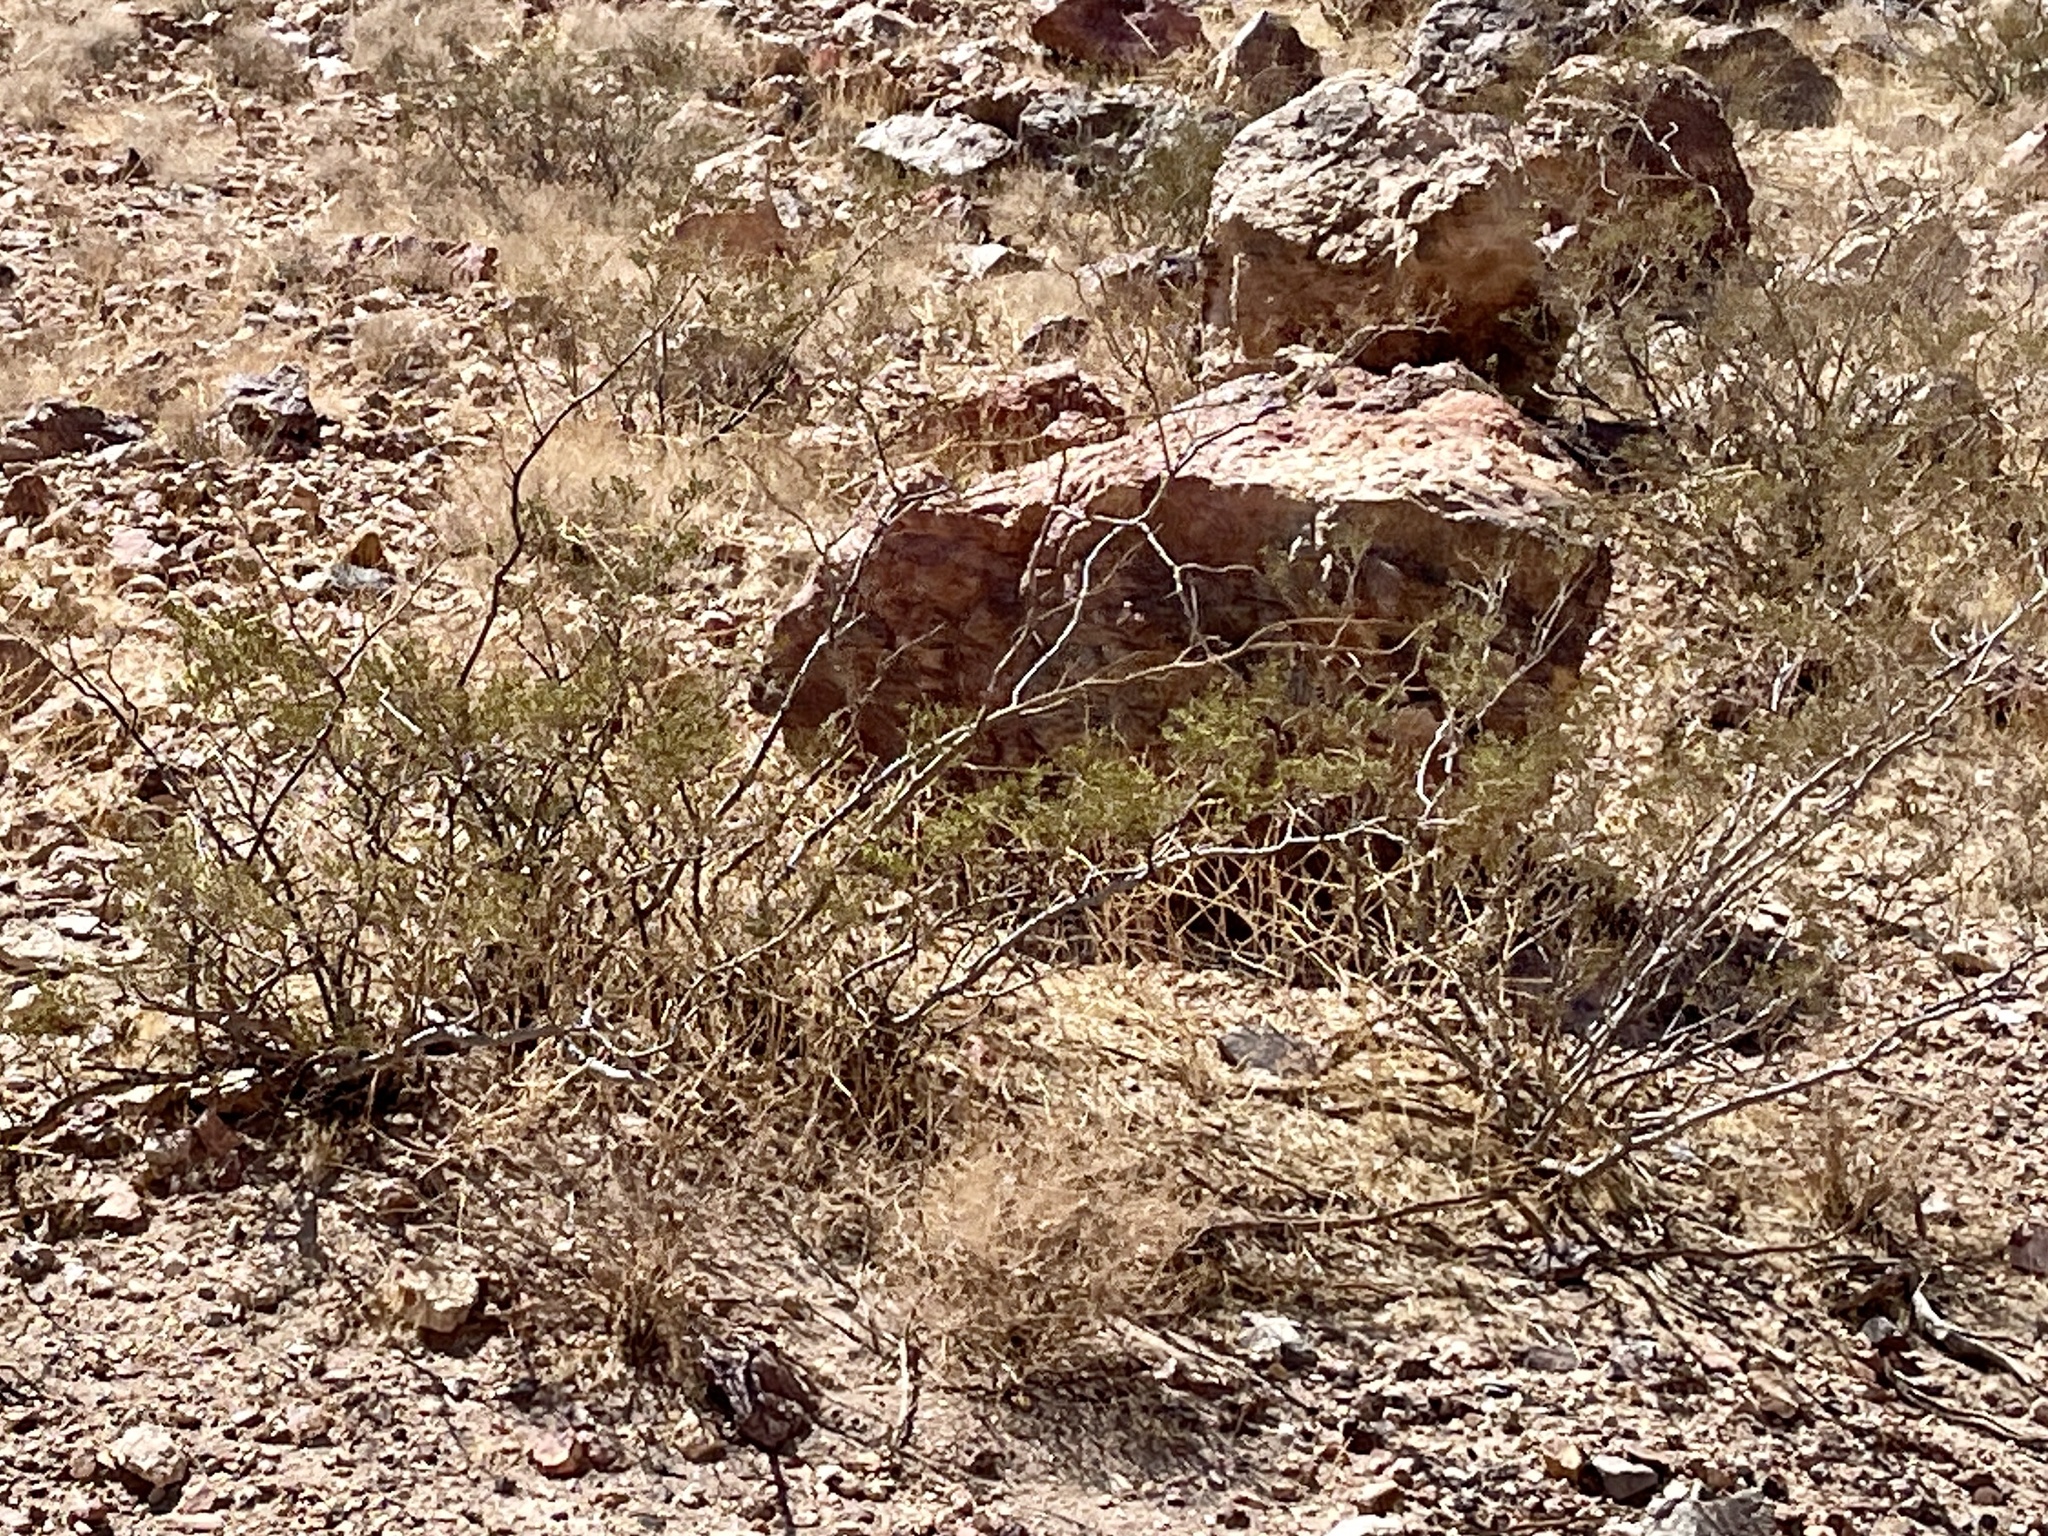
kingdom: Plantae
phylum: Tracheophyta
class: Magnoliopsida
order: Zygophyllales
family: Zygophyllaceae
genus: Larrea
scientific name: Larrea tridentata
